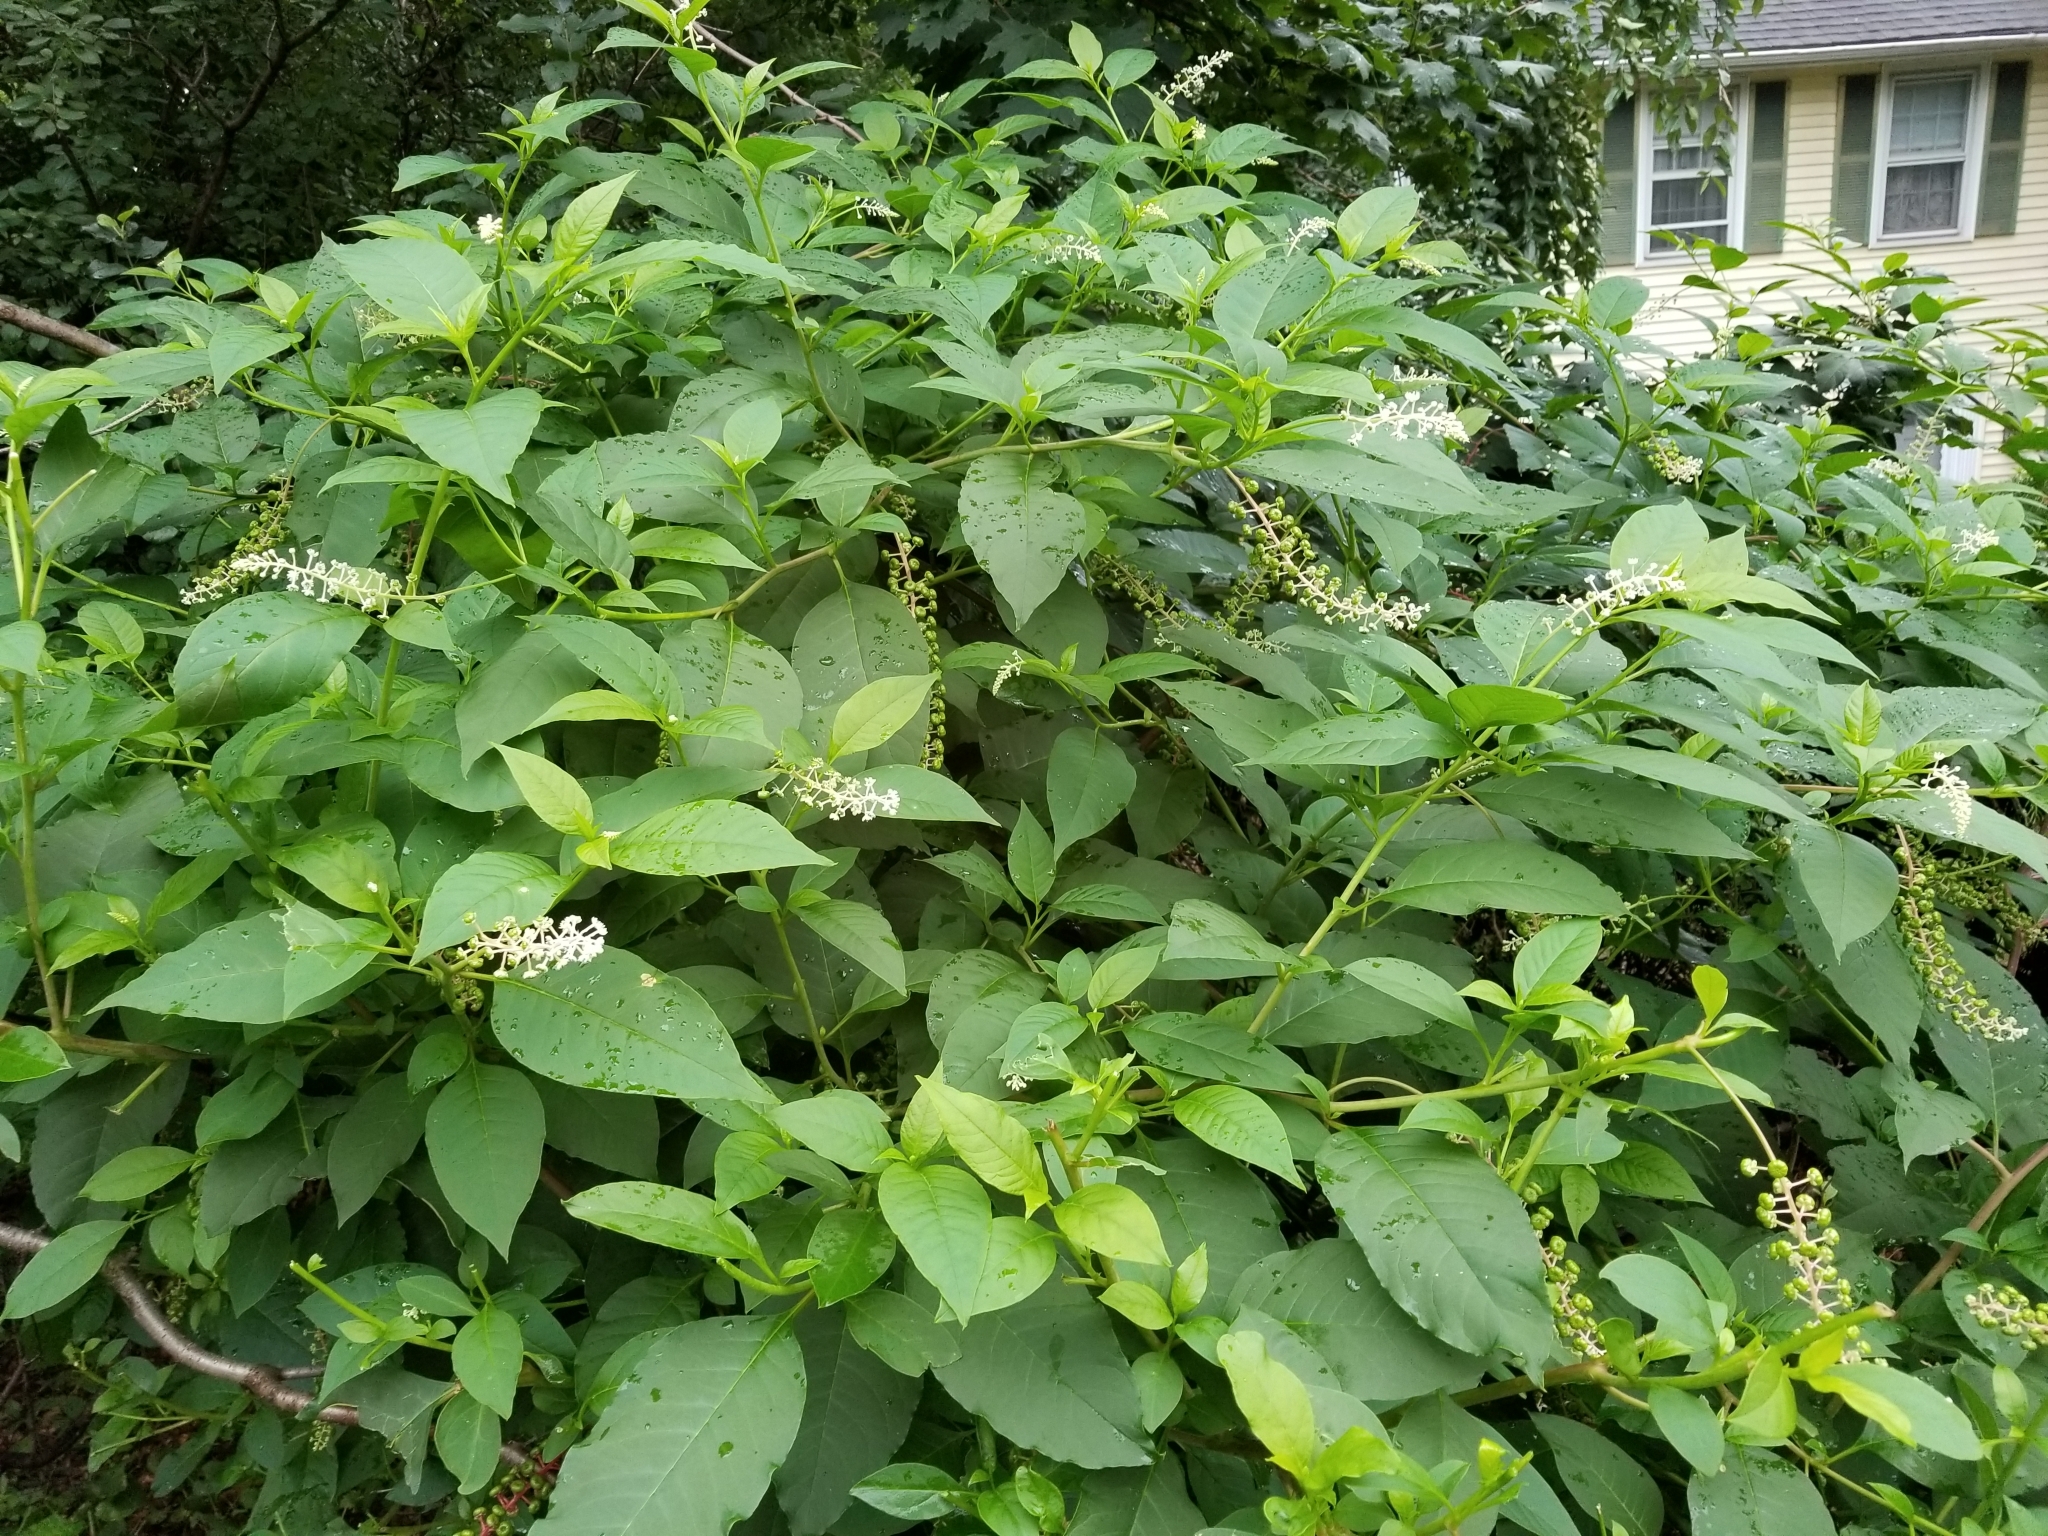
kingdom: Plantae
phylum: Tracheophyta
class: Magnoliopsida
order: Caryophyllales
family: Phytolaccaceae
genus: Phytolacca
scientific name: Phytolacca americana
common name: American pokeweed
